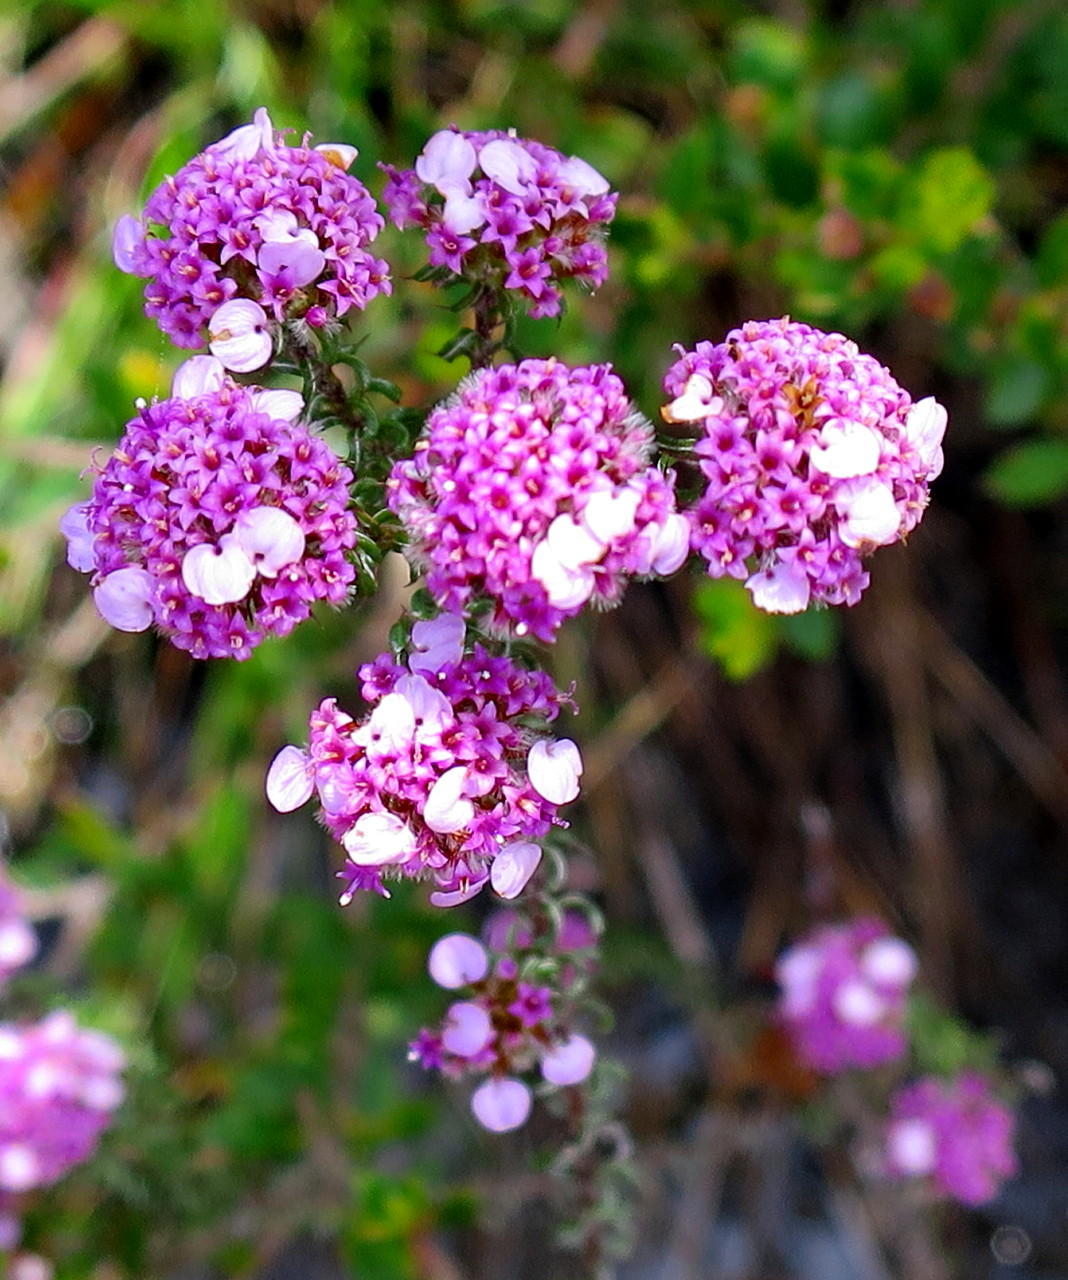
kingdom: Plantae
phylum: Tracheophyta
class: Magnoliopsida
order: Asterales
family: Asteraceae
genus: Disparago
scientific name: Disparago tortilis
